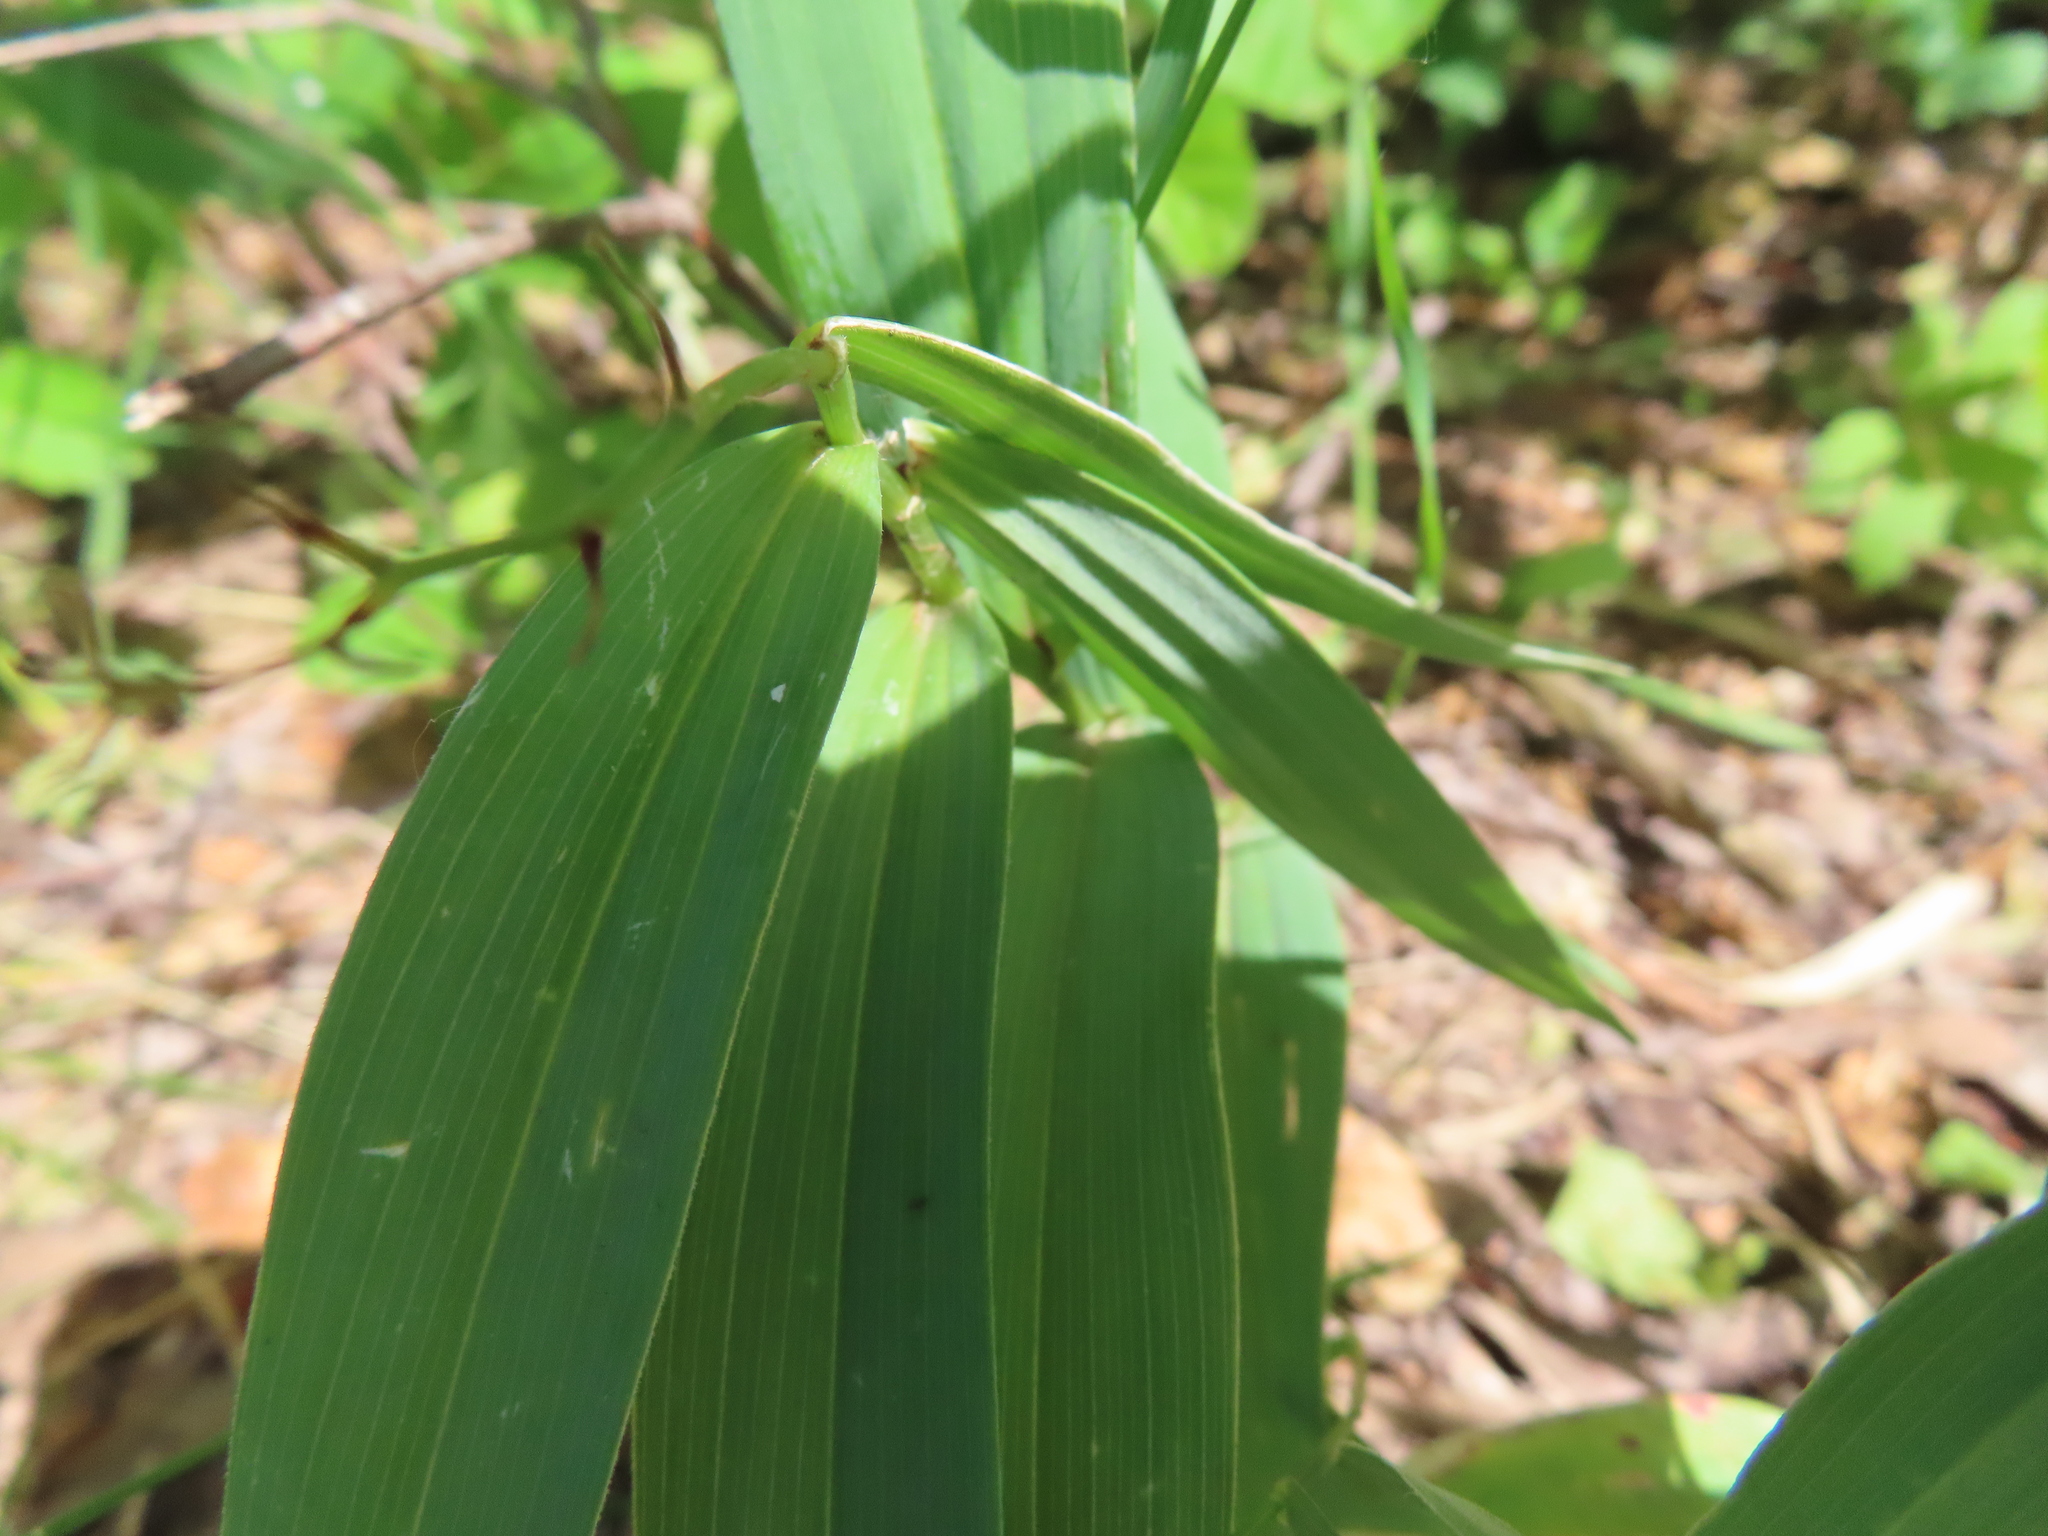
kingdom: Plantae
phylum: Tracheophyta
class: Liliopsida
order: Asparagales
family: Asparagaceae
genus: Maianthemum
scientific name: Maianthemum stellatum
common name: Little false solomon's seal
